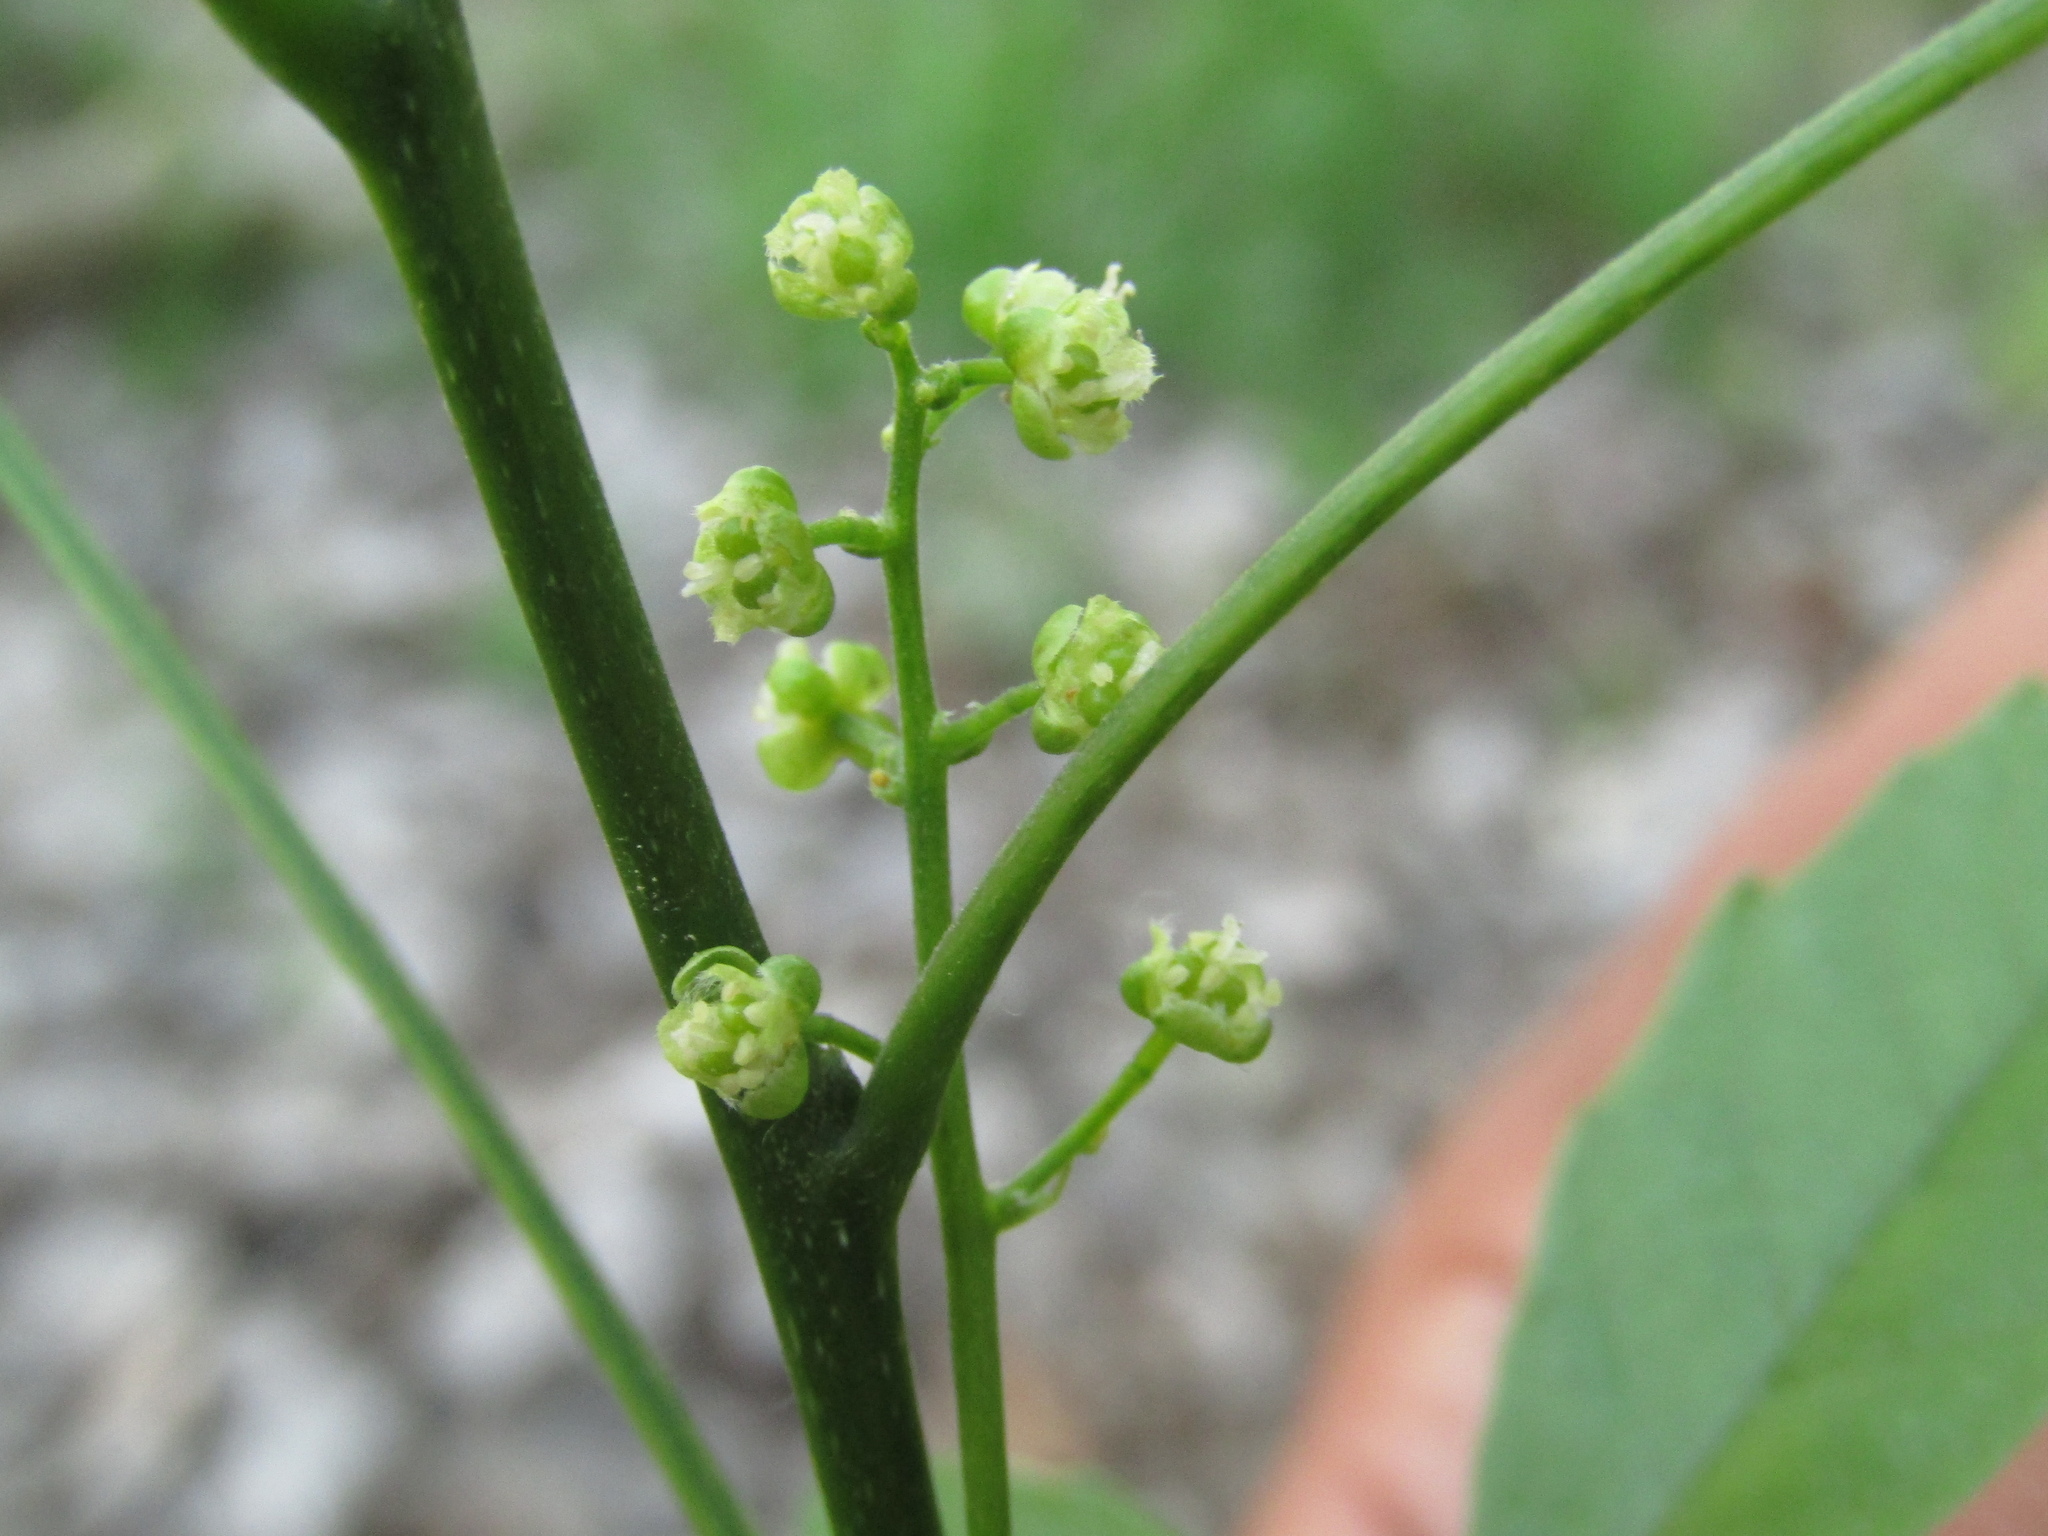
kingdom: Plantae
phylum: Tracheophyta
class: Magnoliopsida
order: Sapindales
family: Sapindaceae
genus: Allophylus
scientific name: Allophylus edulis
